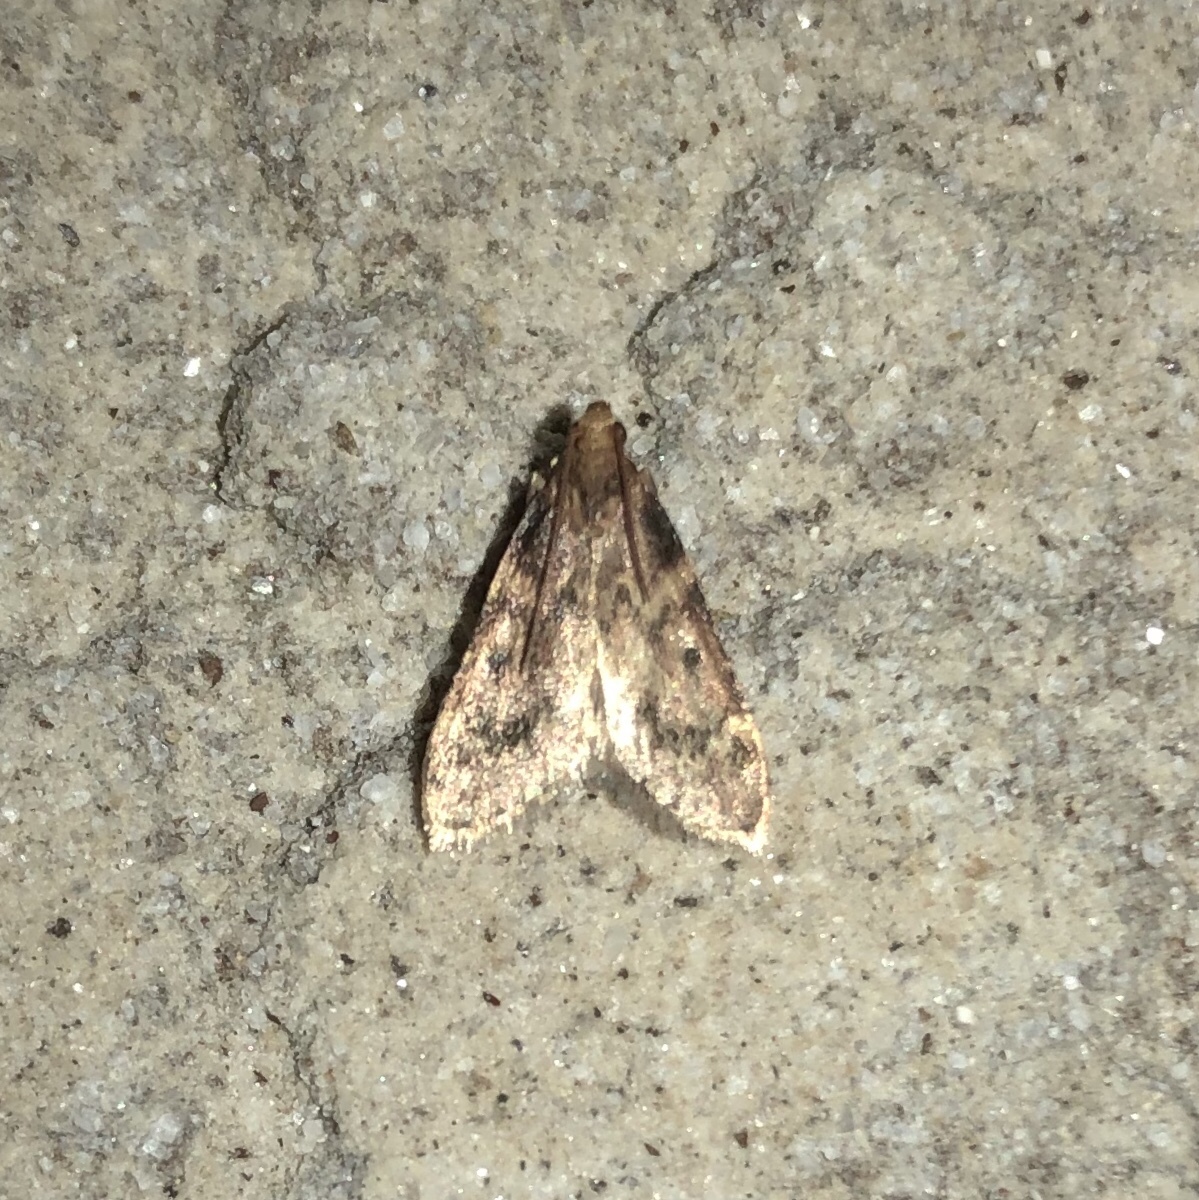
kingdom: Animalia
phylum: Arthropoda
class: Insecta
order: Lepidoptera
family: Pyralidae
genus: Aglossa
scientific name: Aglossa disciferalis
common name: Pink-masked pyralid moth
